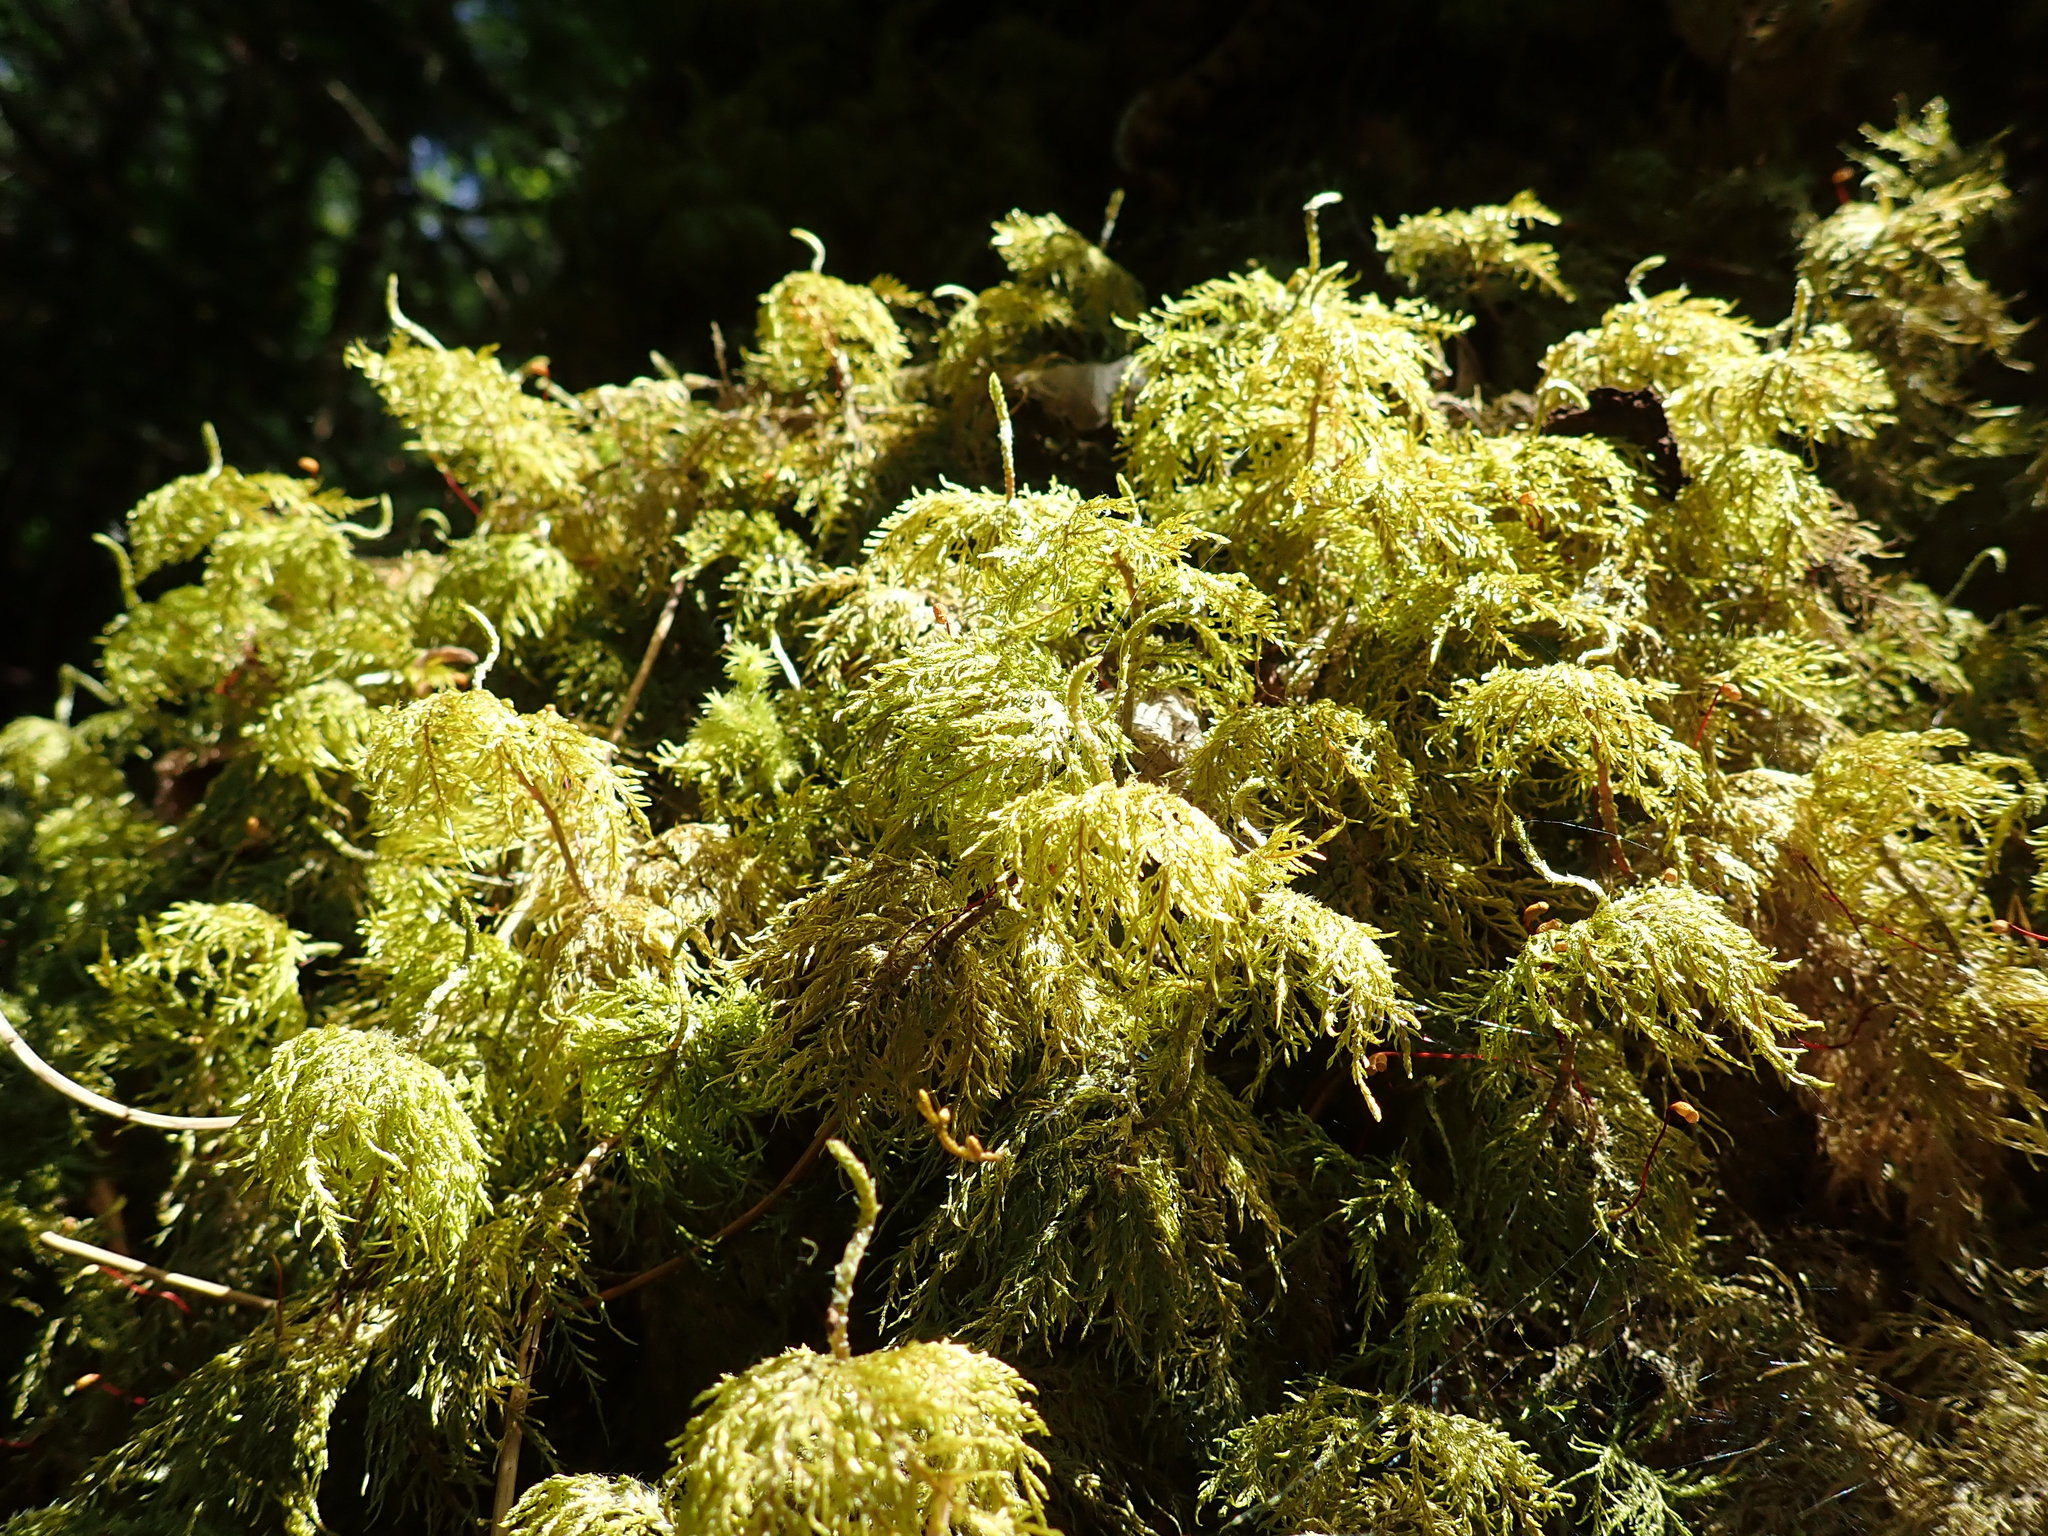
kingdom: Plantae
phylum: Bryophyta
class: Bryopsida
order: Hypnales
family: Hylocomiaceae
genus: Hylocomium
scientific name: Hylocomium splendens
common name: Stairstep moss
